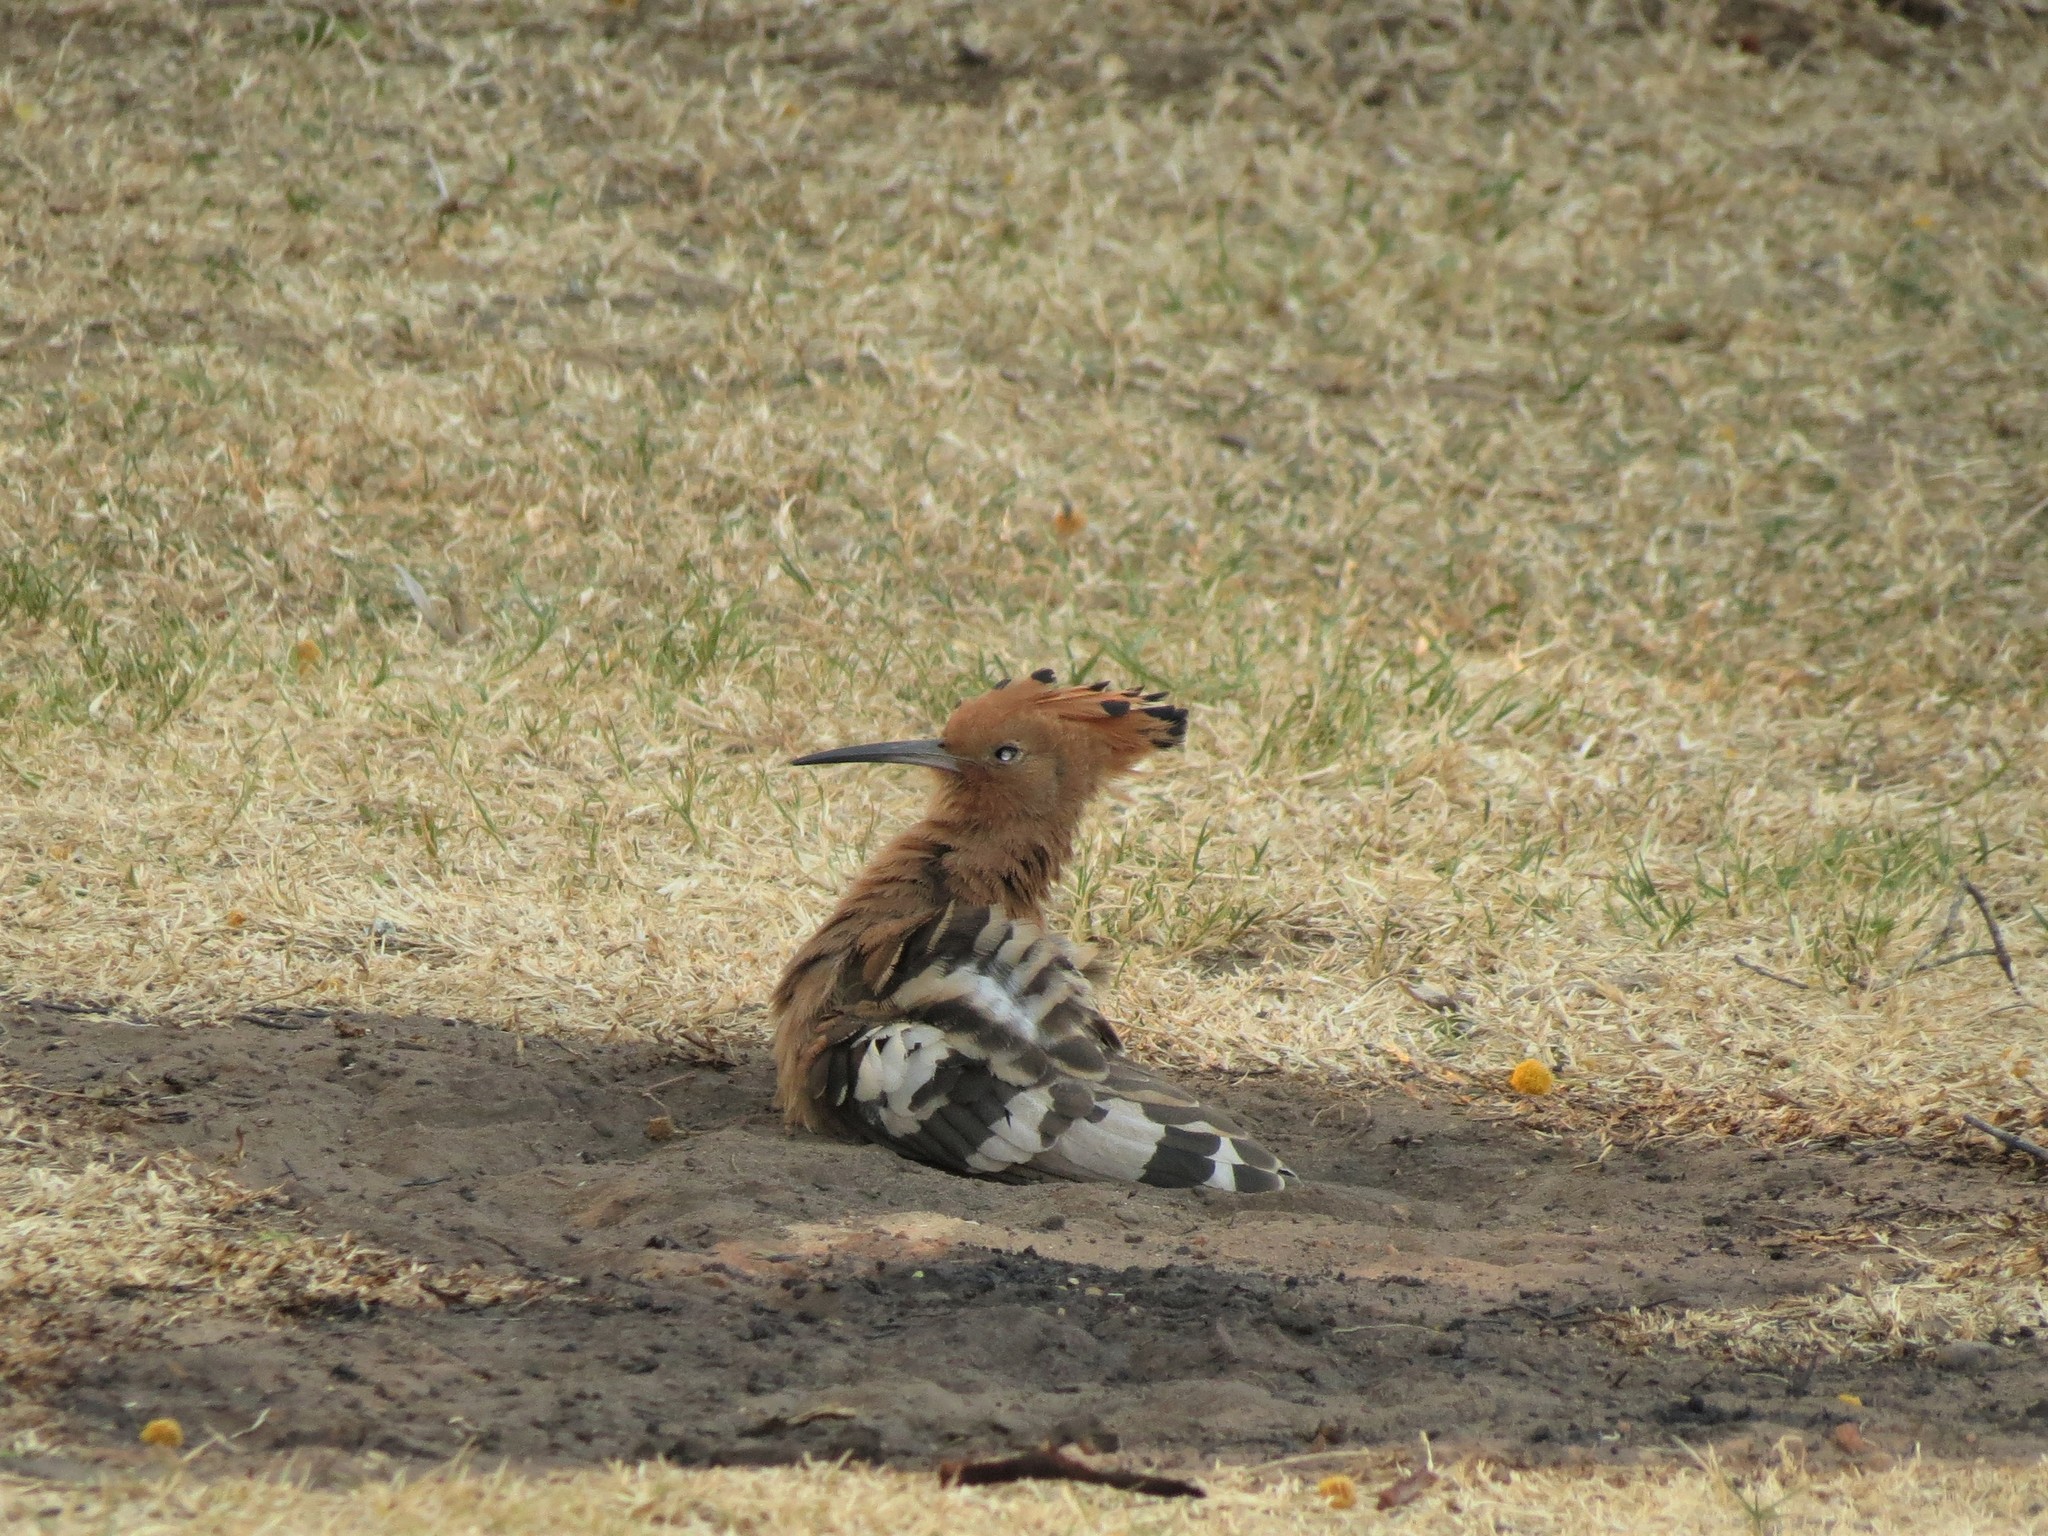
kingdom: Animalia
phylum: Chordata
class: Aves
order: Bucerotiformes
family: Upupidae
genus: Upupa
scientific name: Upupa africana
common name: African hoopoe
